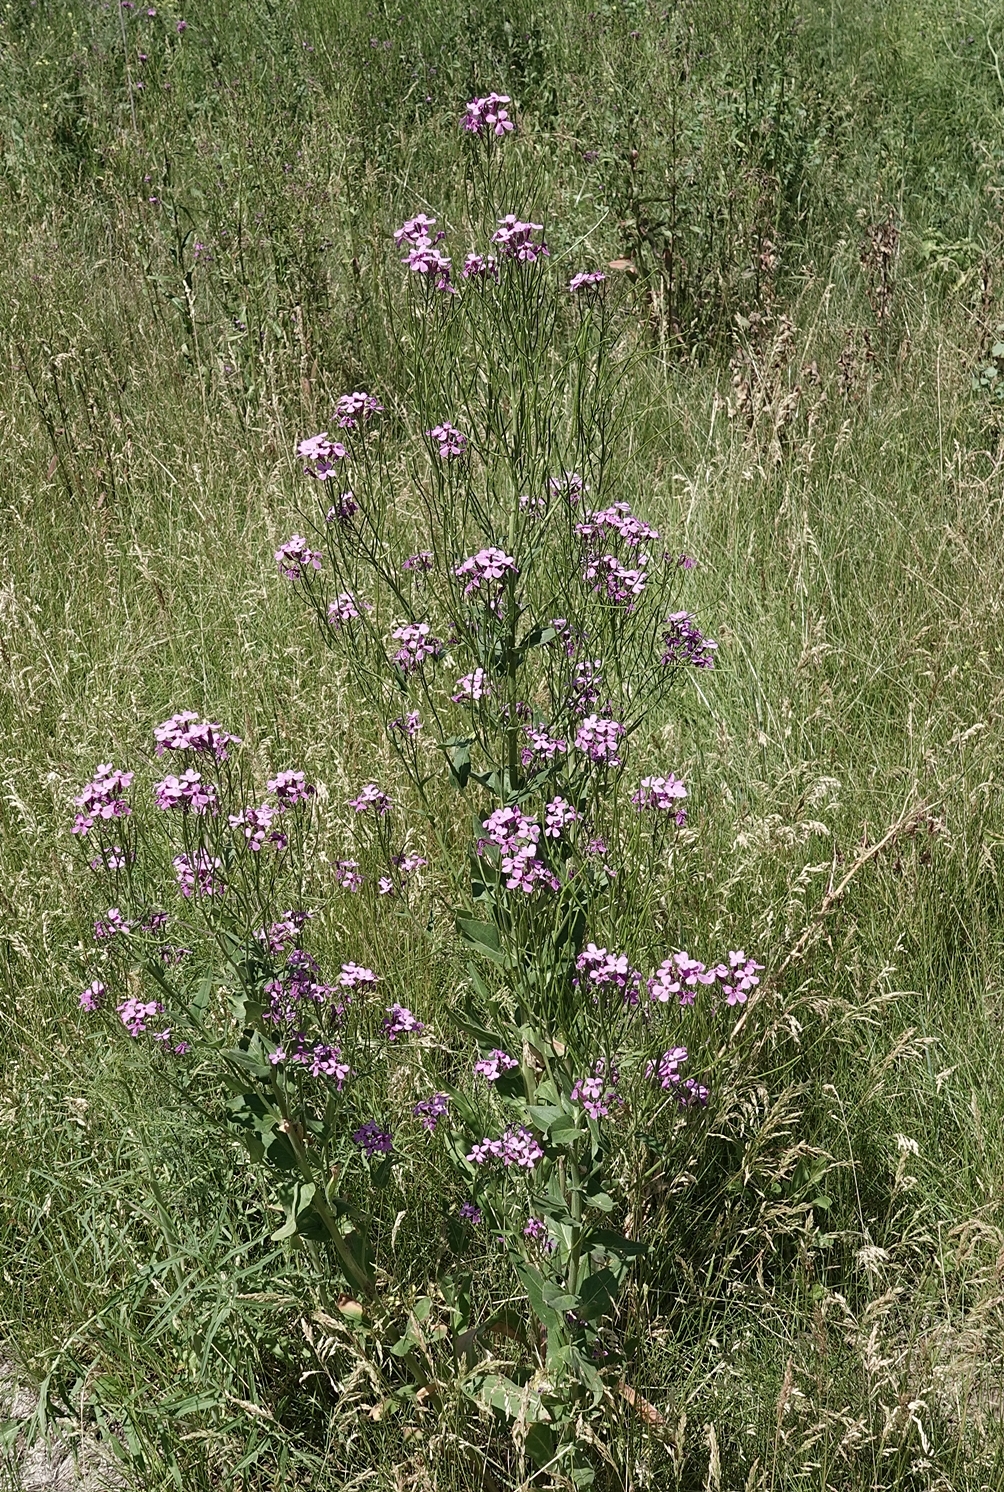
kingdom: Plantae
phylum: Tracheophyta
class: Magnoliopsida
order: Brassicales
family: Brassicaceae
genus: Hesperis
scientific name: Hesperis matronalis
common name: Dame's-violet
